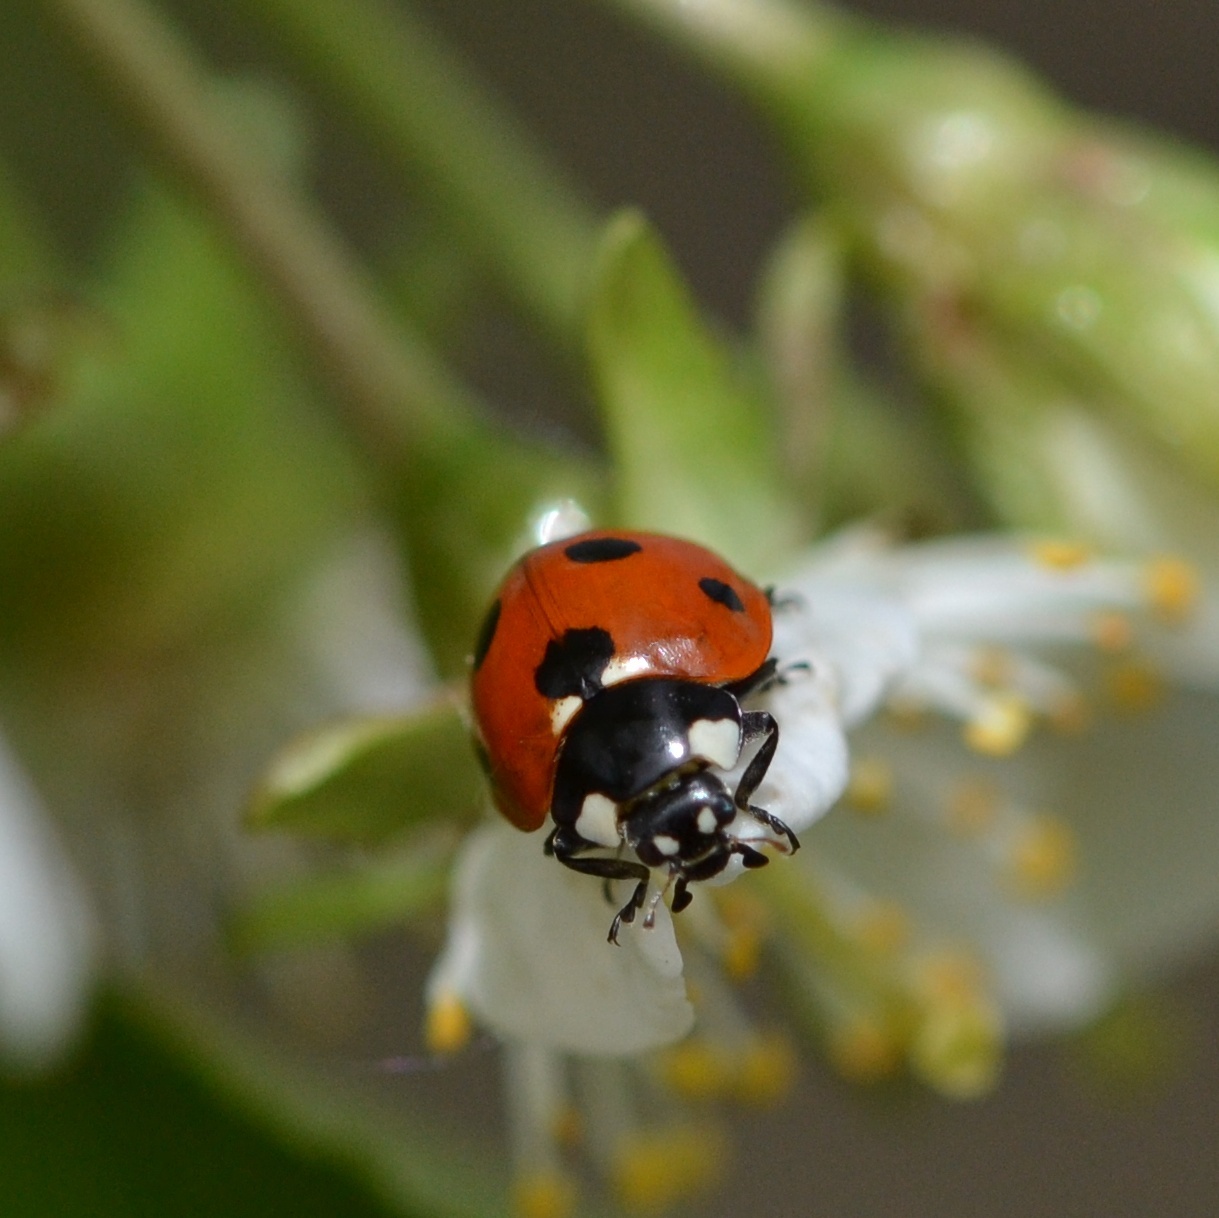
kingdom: Animalia
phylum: Arthropoda
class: Insecta
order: Coleoptera
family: Coccinellidae
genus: Coccinella
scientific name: Coccinella septempunctata
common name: Sevenspotted lady beetle
